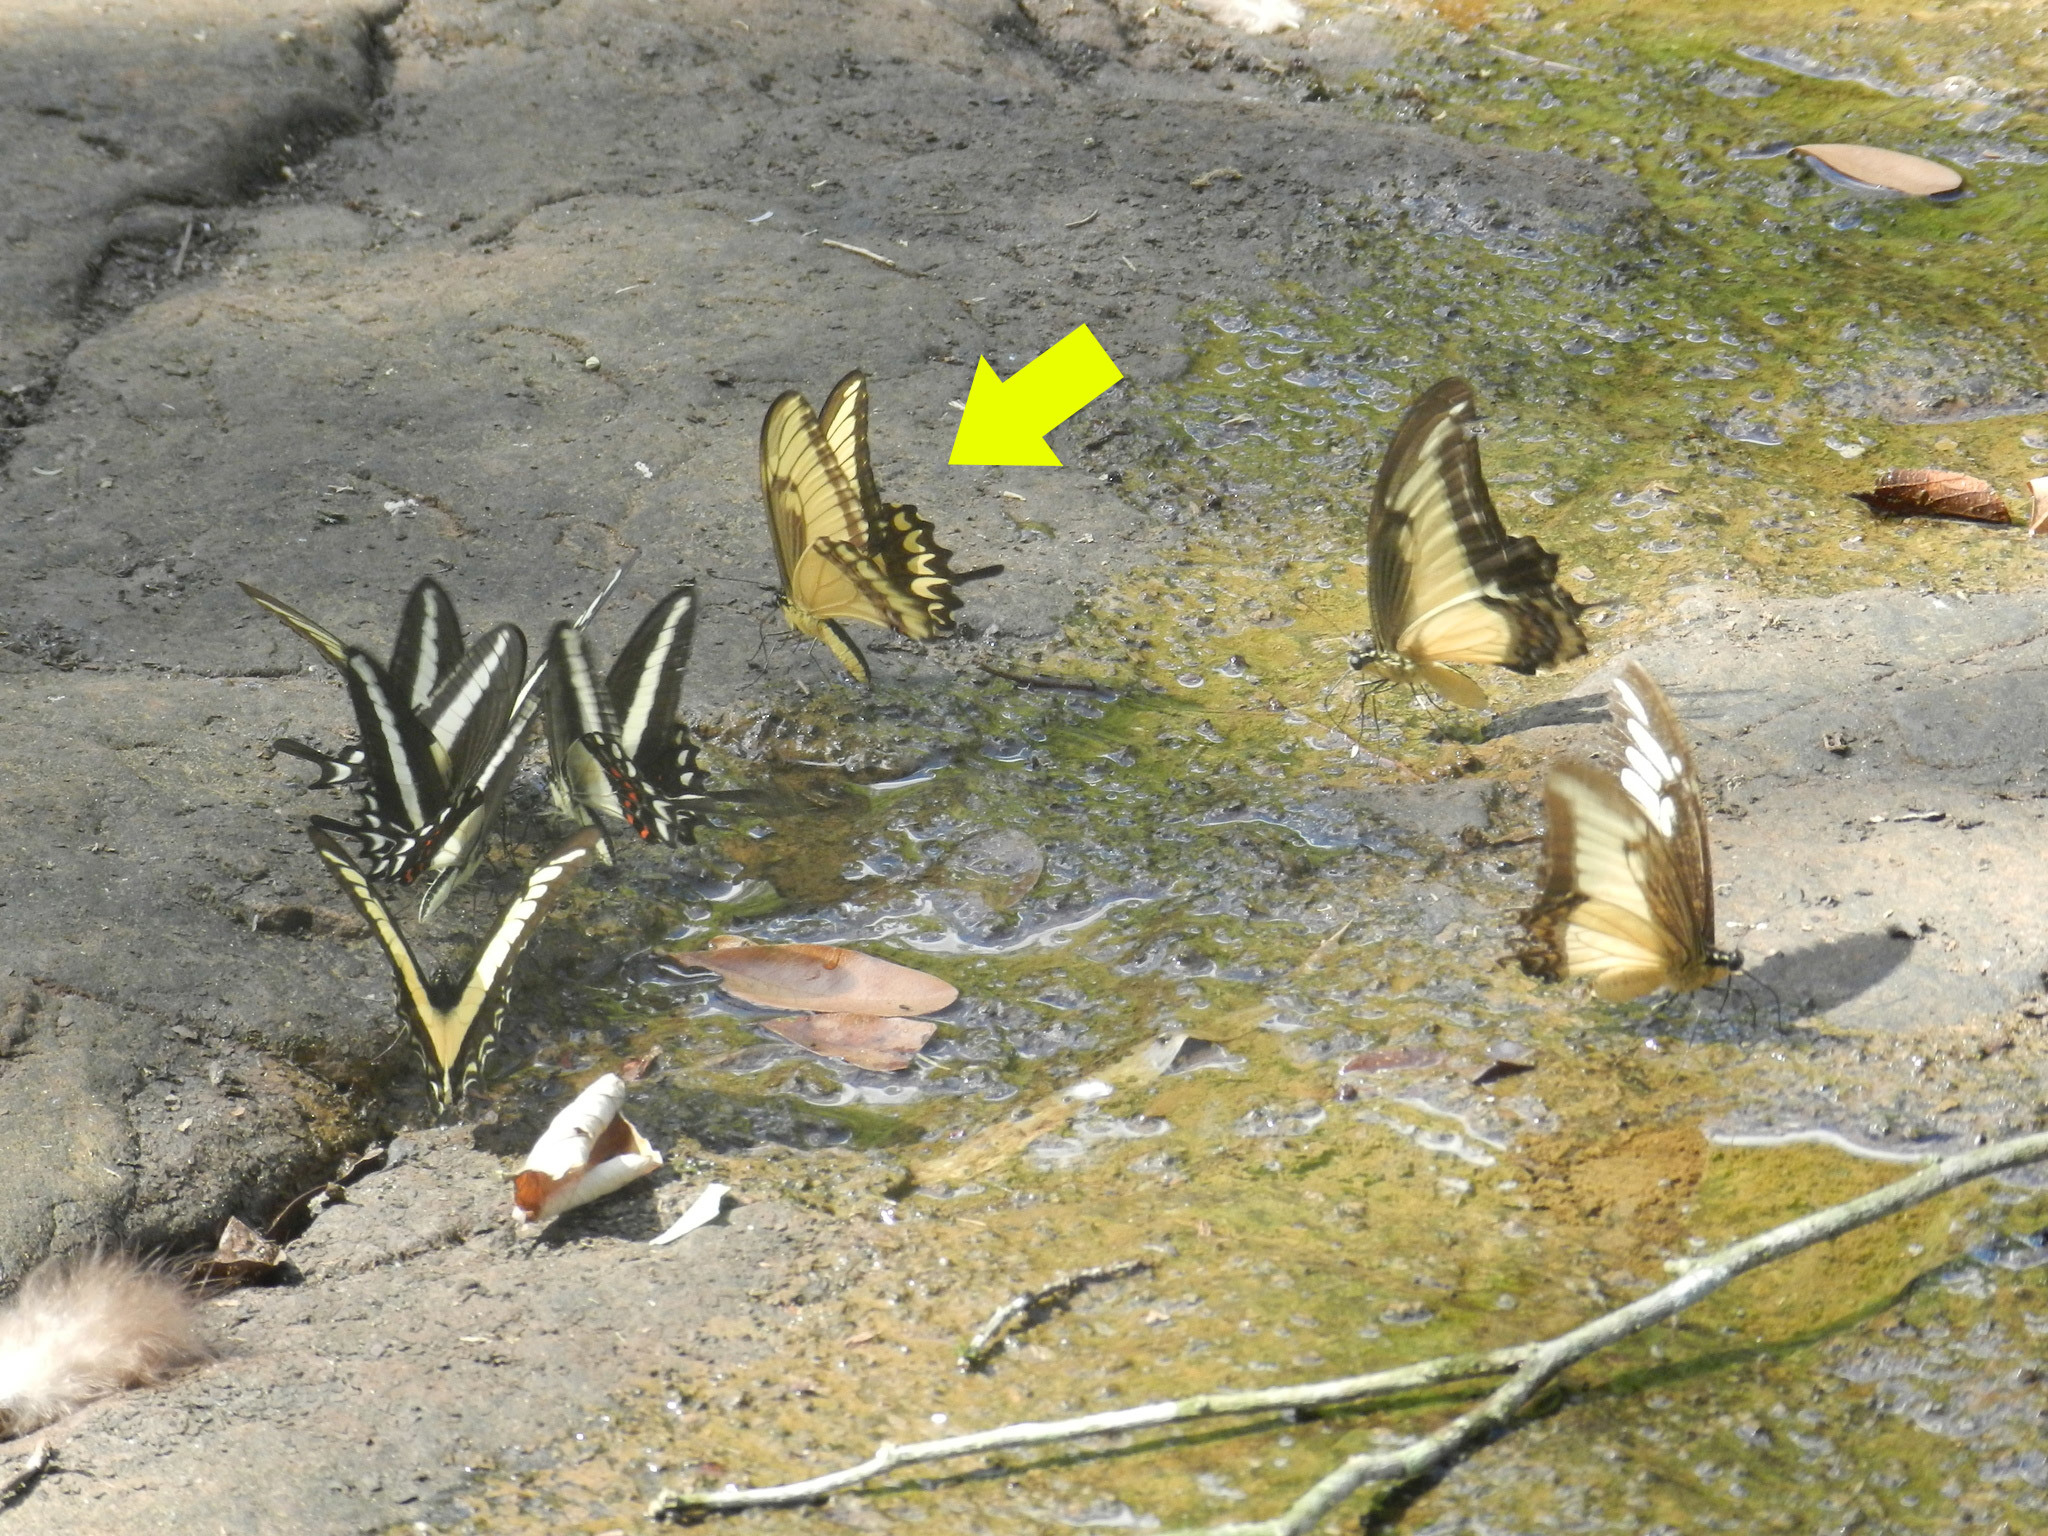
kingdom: Animalia
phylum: Arthropoda
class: Insecta
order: Lepidoptera
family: Papilionidae
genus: Papilio
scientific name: Papilio astyalus
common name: Astyalus swallowtail
